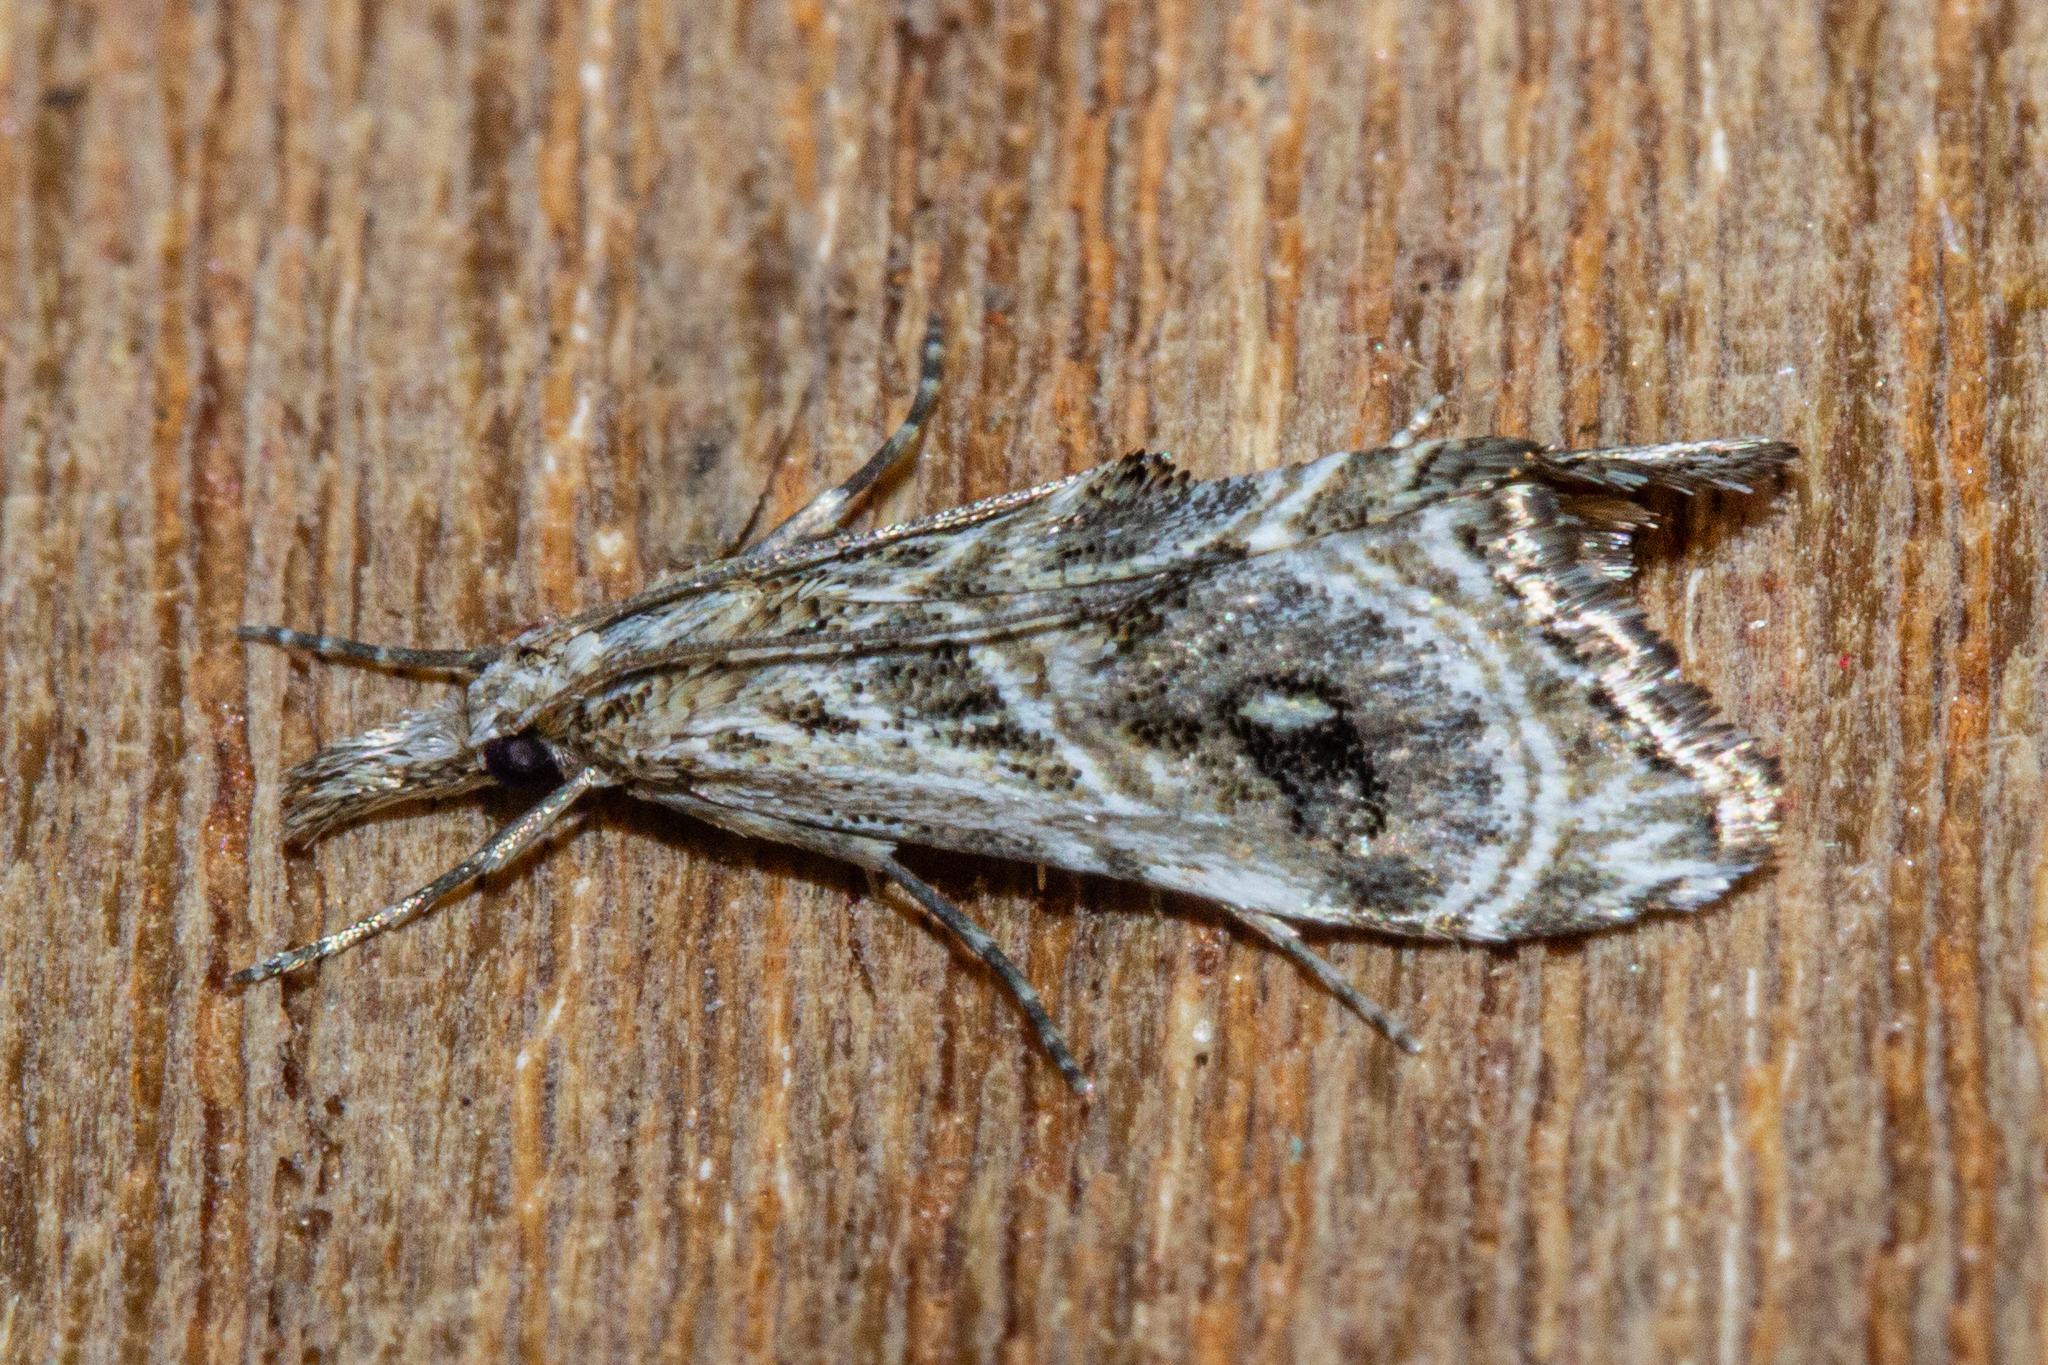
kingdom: Animalia
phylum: Arthropoda
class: Insecta
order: Lepidoptera
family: Crambidae
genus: Gadira
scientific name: Gadira acerella
